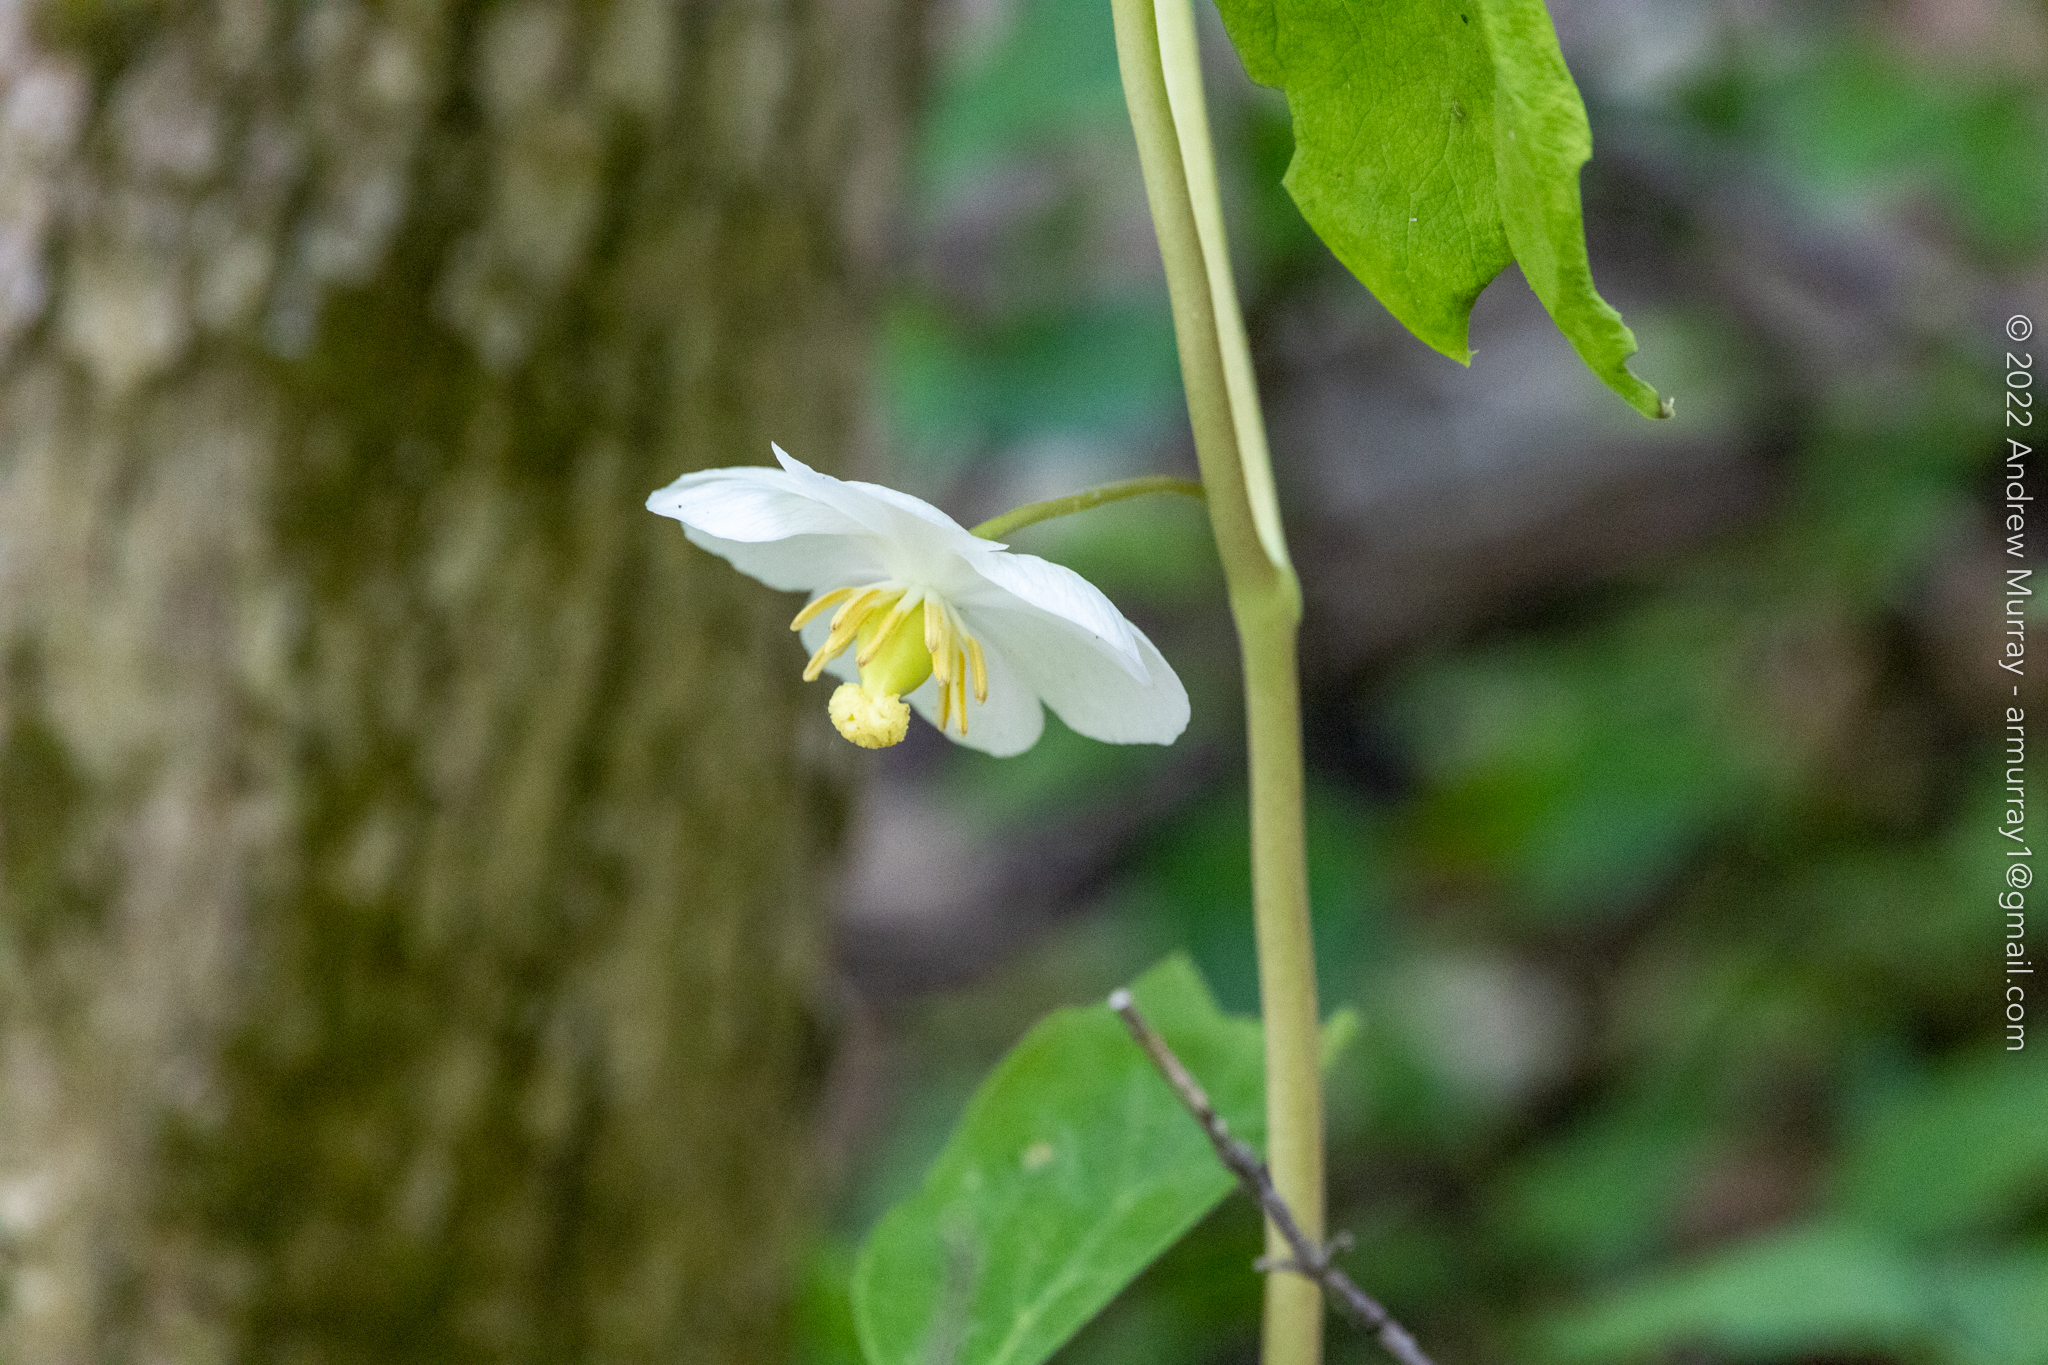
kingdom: Plantae
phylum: Tracheophyta
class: Magnoliopsida
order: Ranunculales
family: Berberidaceae
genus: Podophyllum
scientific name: Podophyllum peltatum
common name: Wild mandrake
